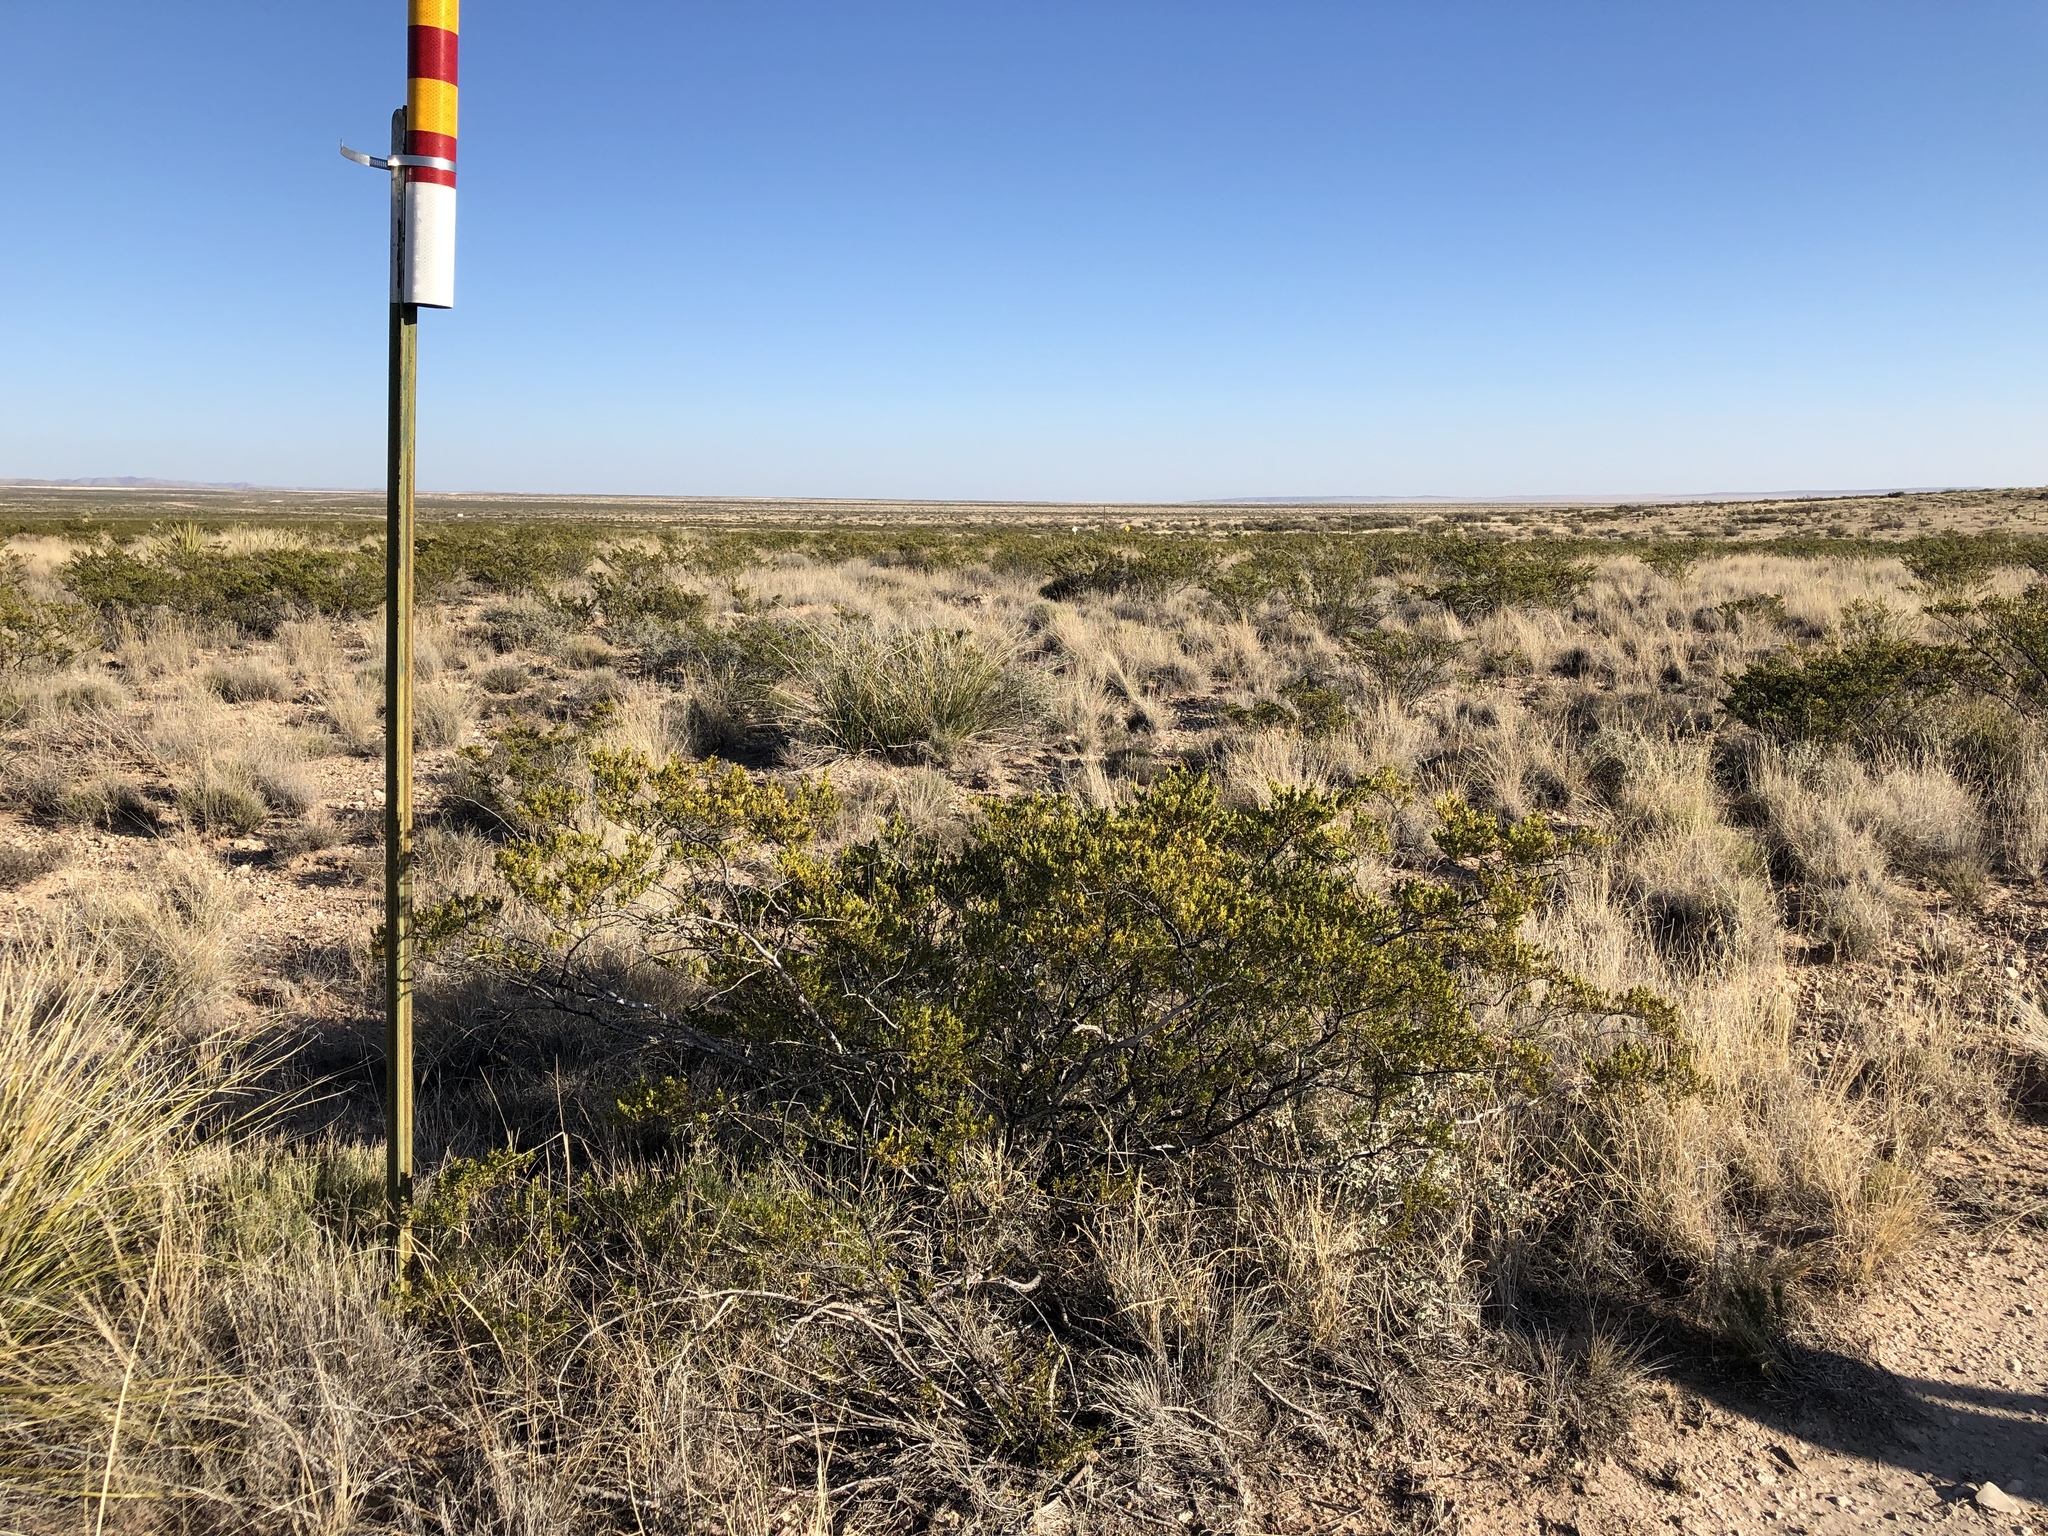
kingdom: Plantae
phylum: Tracheophyta
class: Magnoliopsida
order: Zygophyllales
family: Zygophyllaceae
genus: Larrea
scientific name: Larrea tridentata
